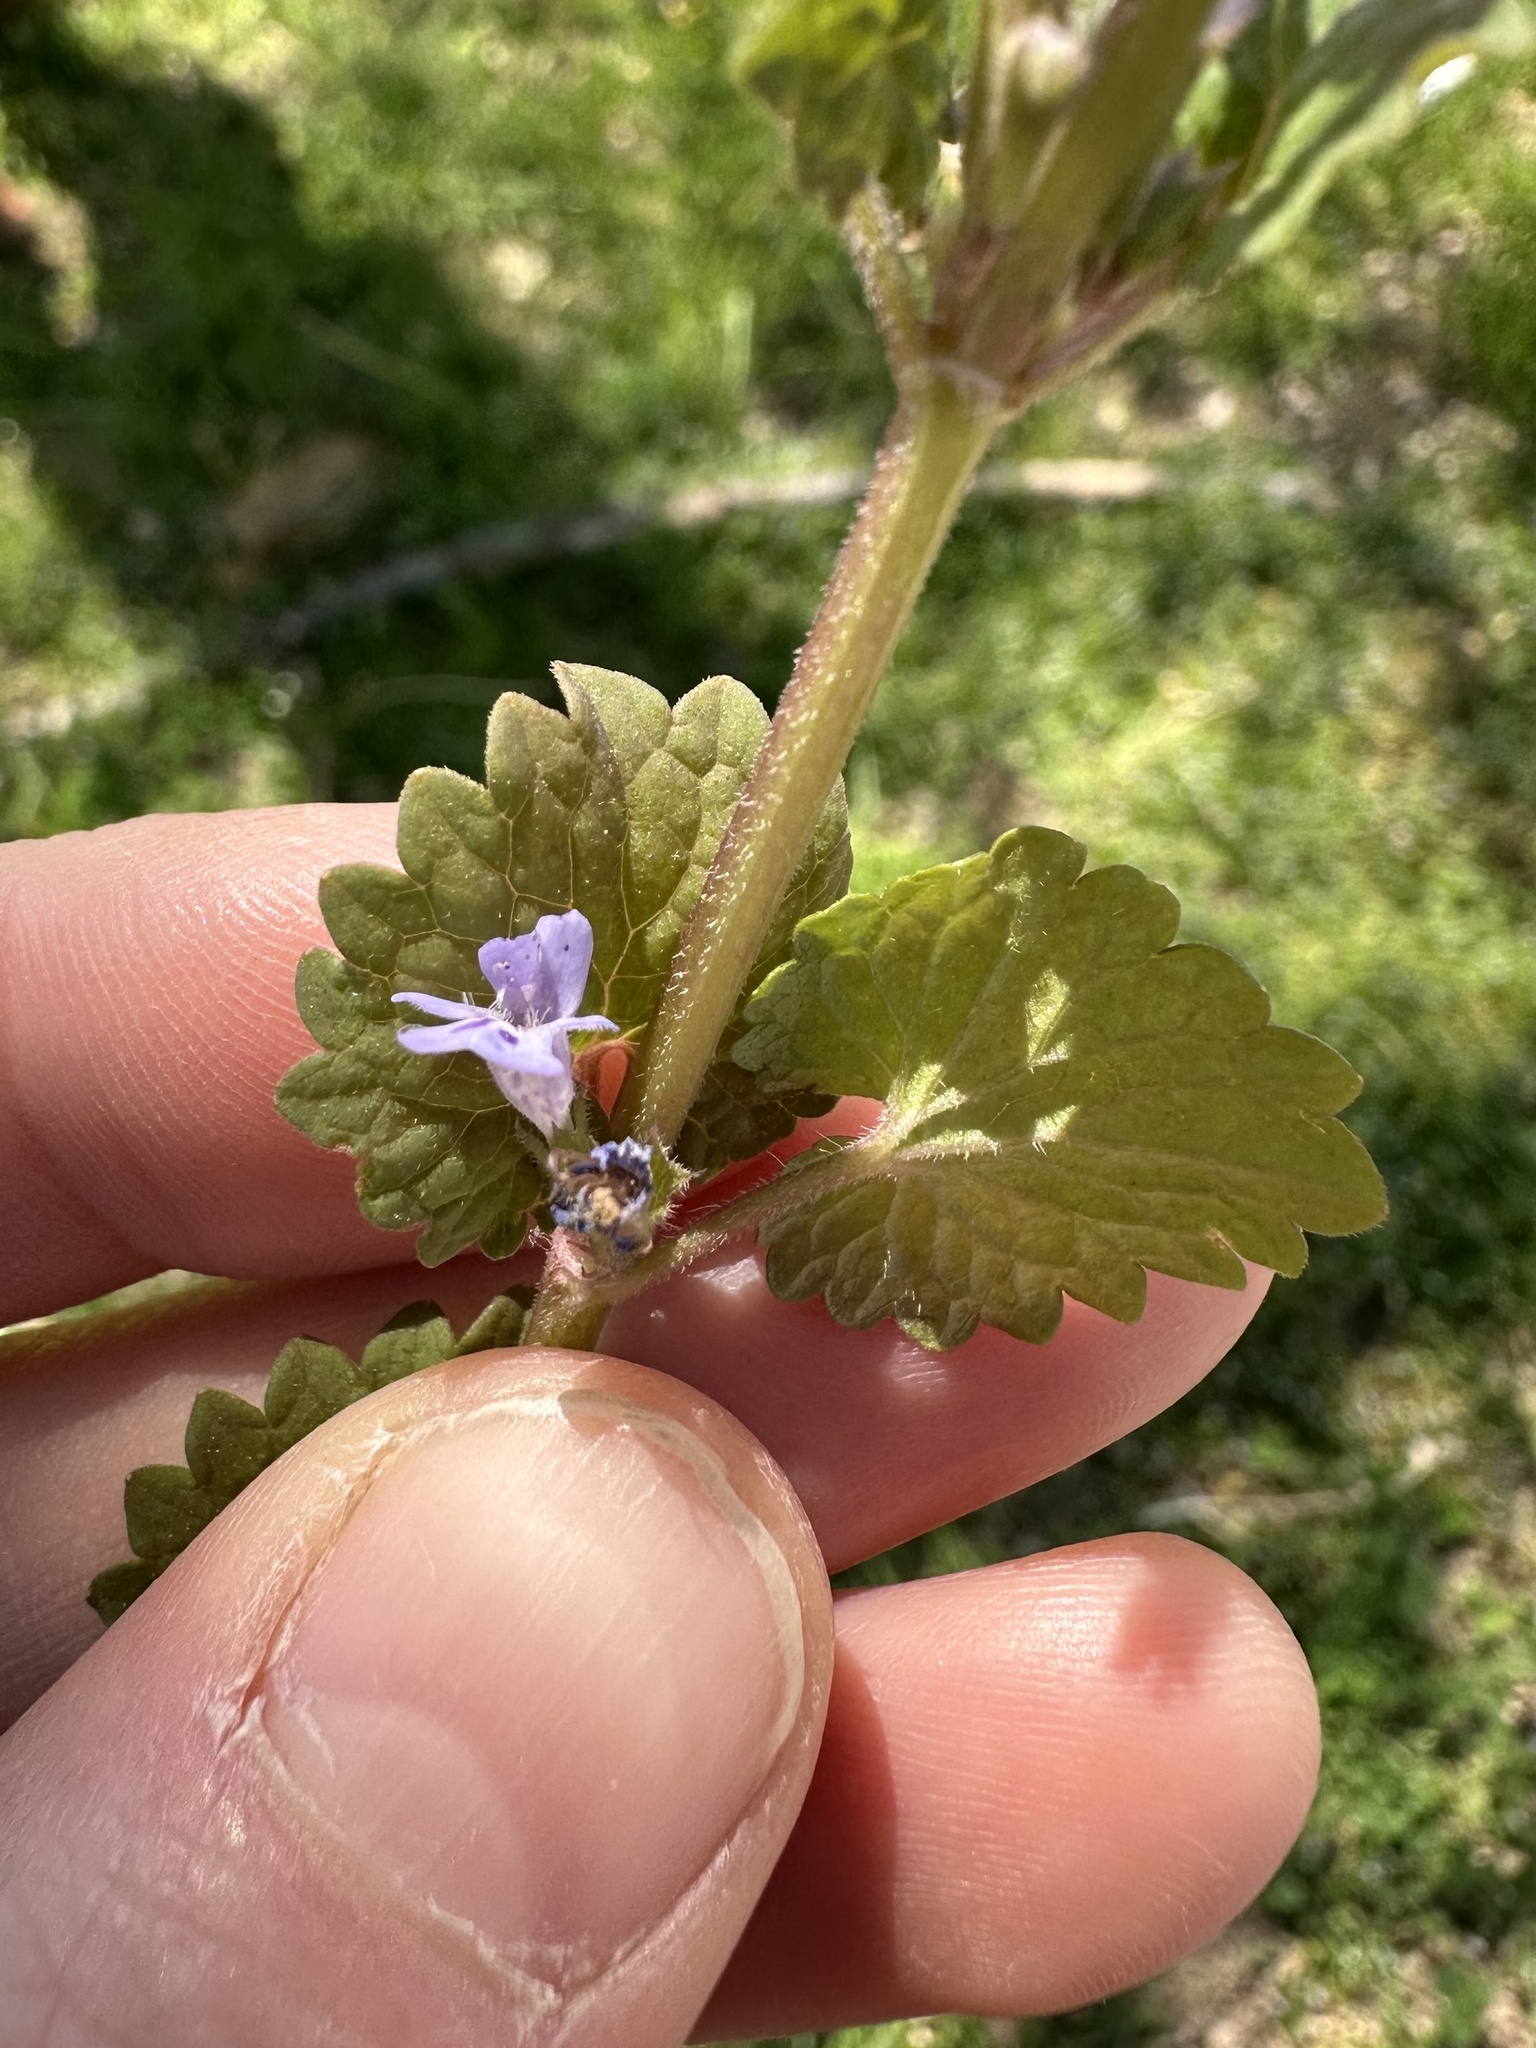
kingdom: Plantae
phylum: Tracheophyta
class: Magnoliopsida
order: Lamiales
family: Lamiaceae
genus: Glechoma
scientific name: Glechoma hederacea
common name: Ground ivy
